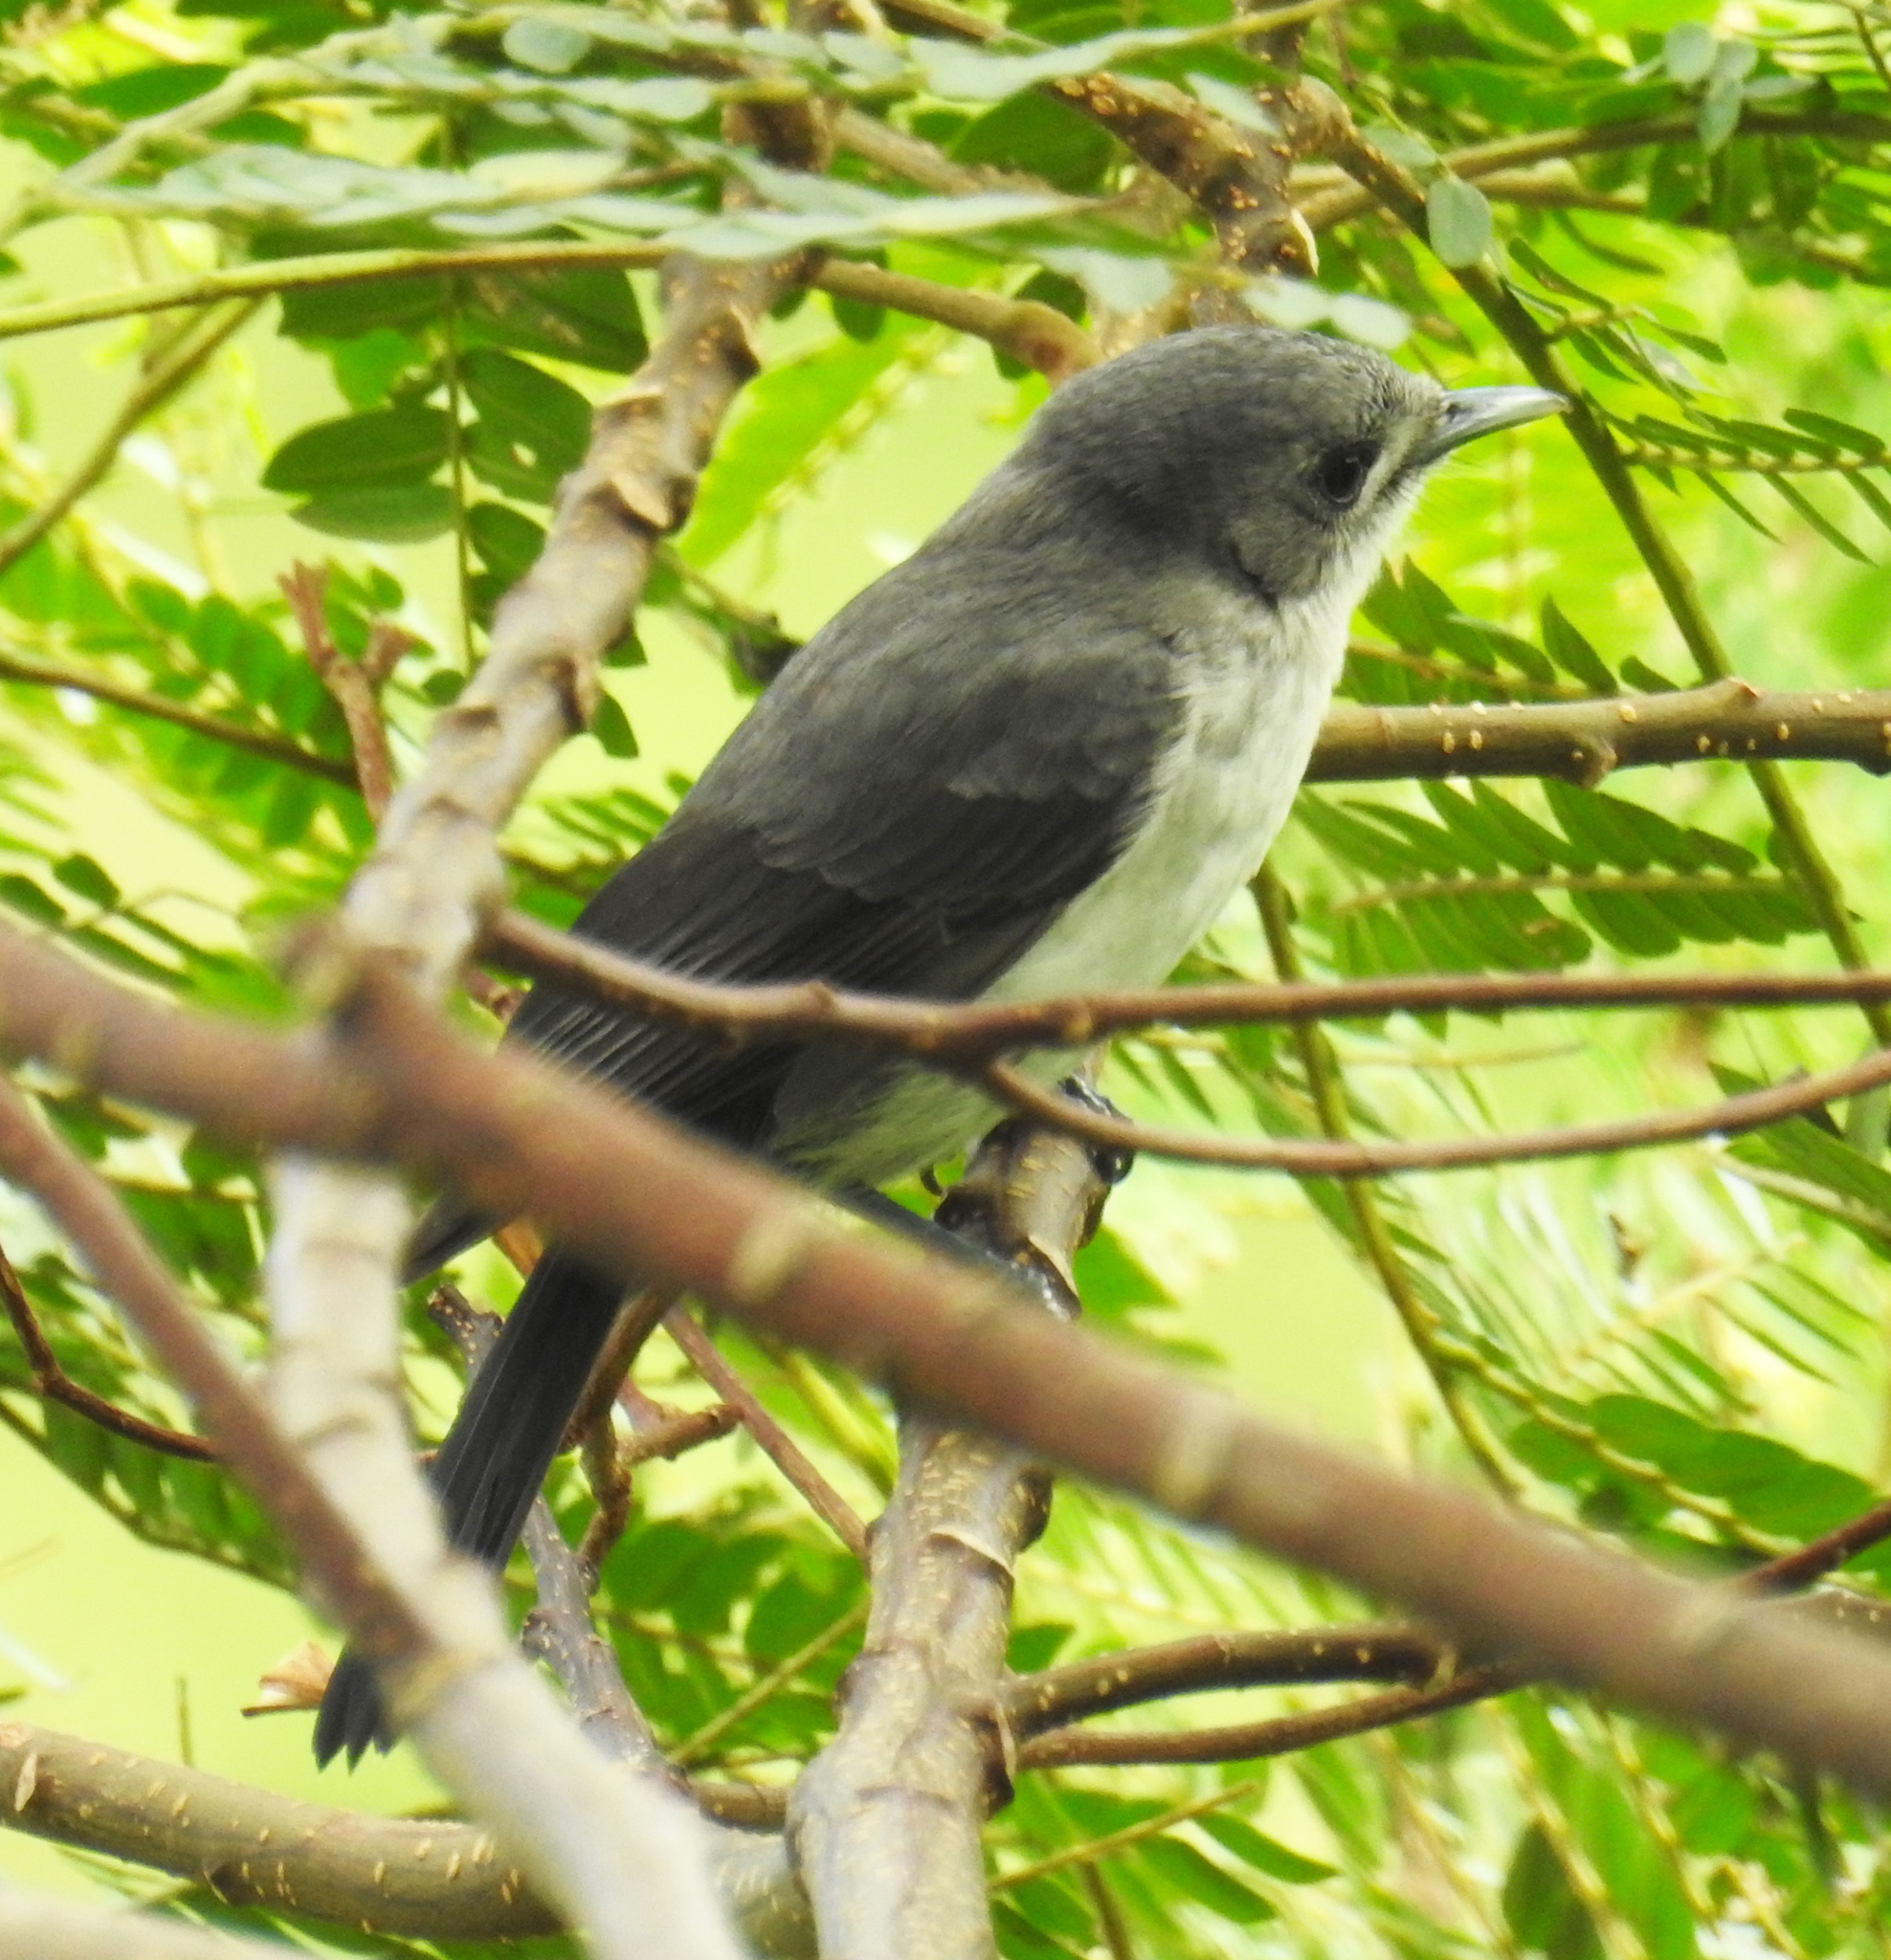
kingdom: Animalia
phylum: Chordata
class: Aves
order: Passeriformes
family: Monarchidae
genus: Pomarea
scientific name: Pomarea dimidiata
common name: Rarotonga monarch
